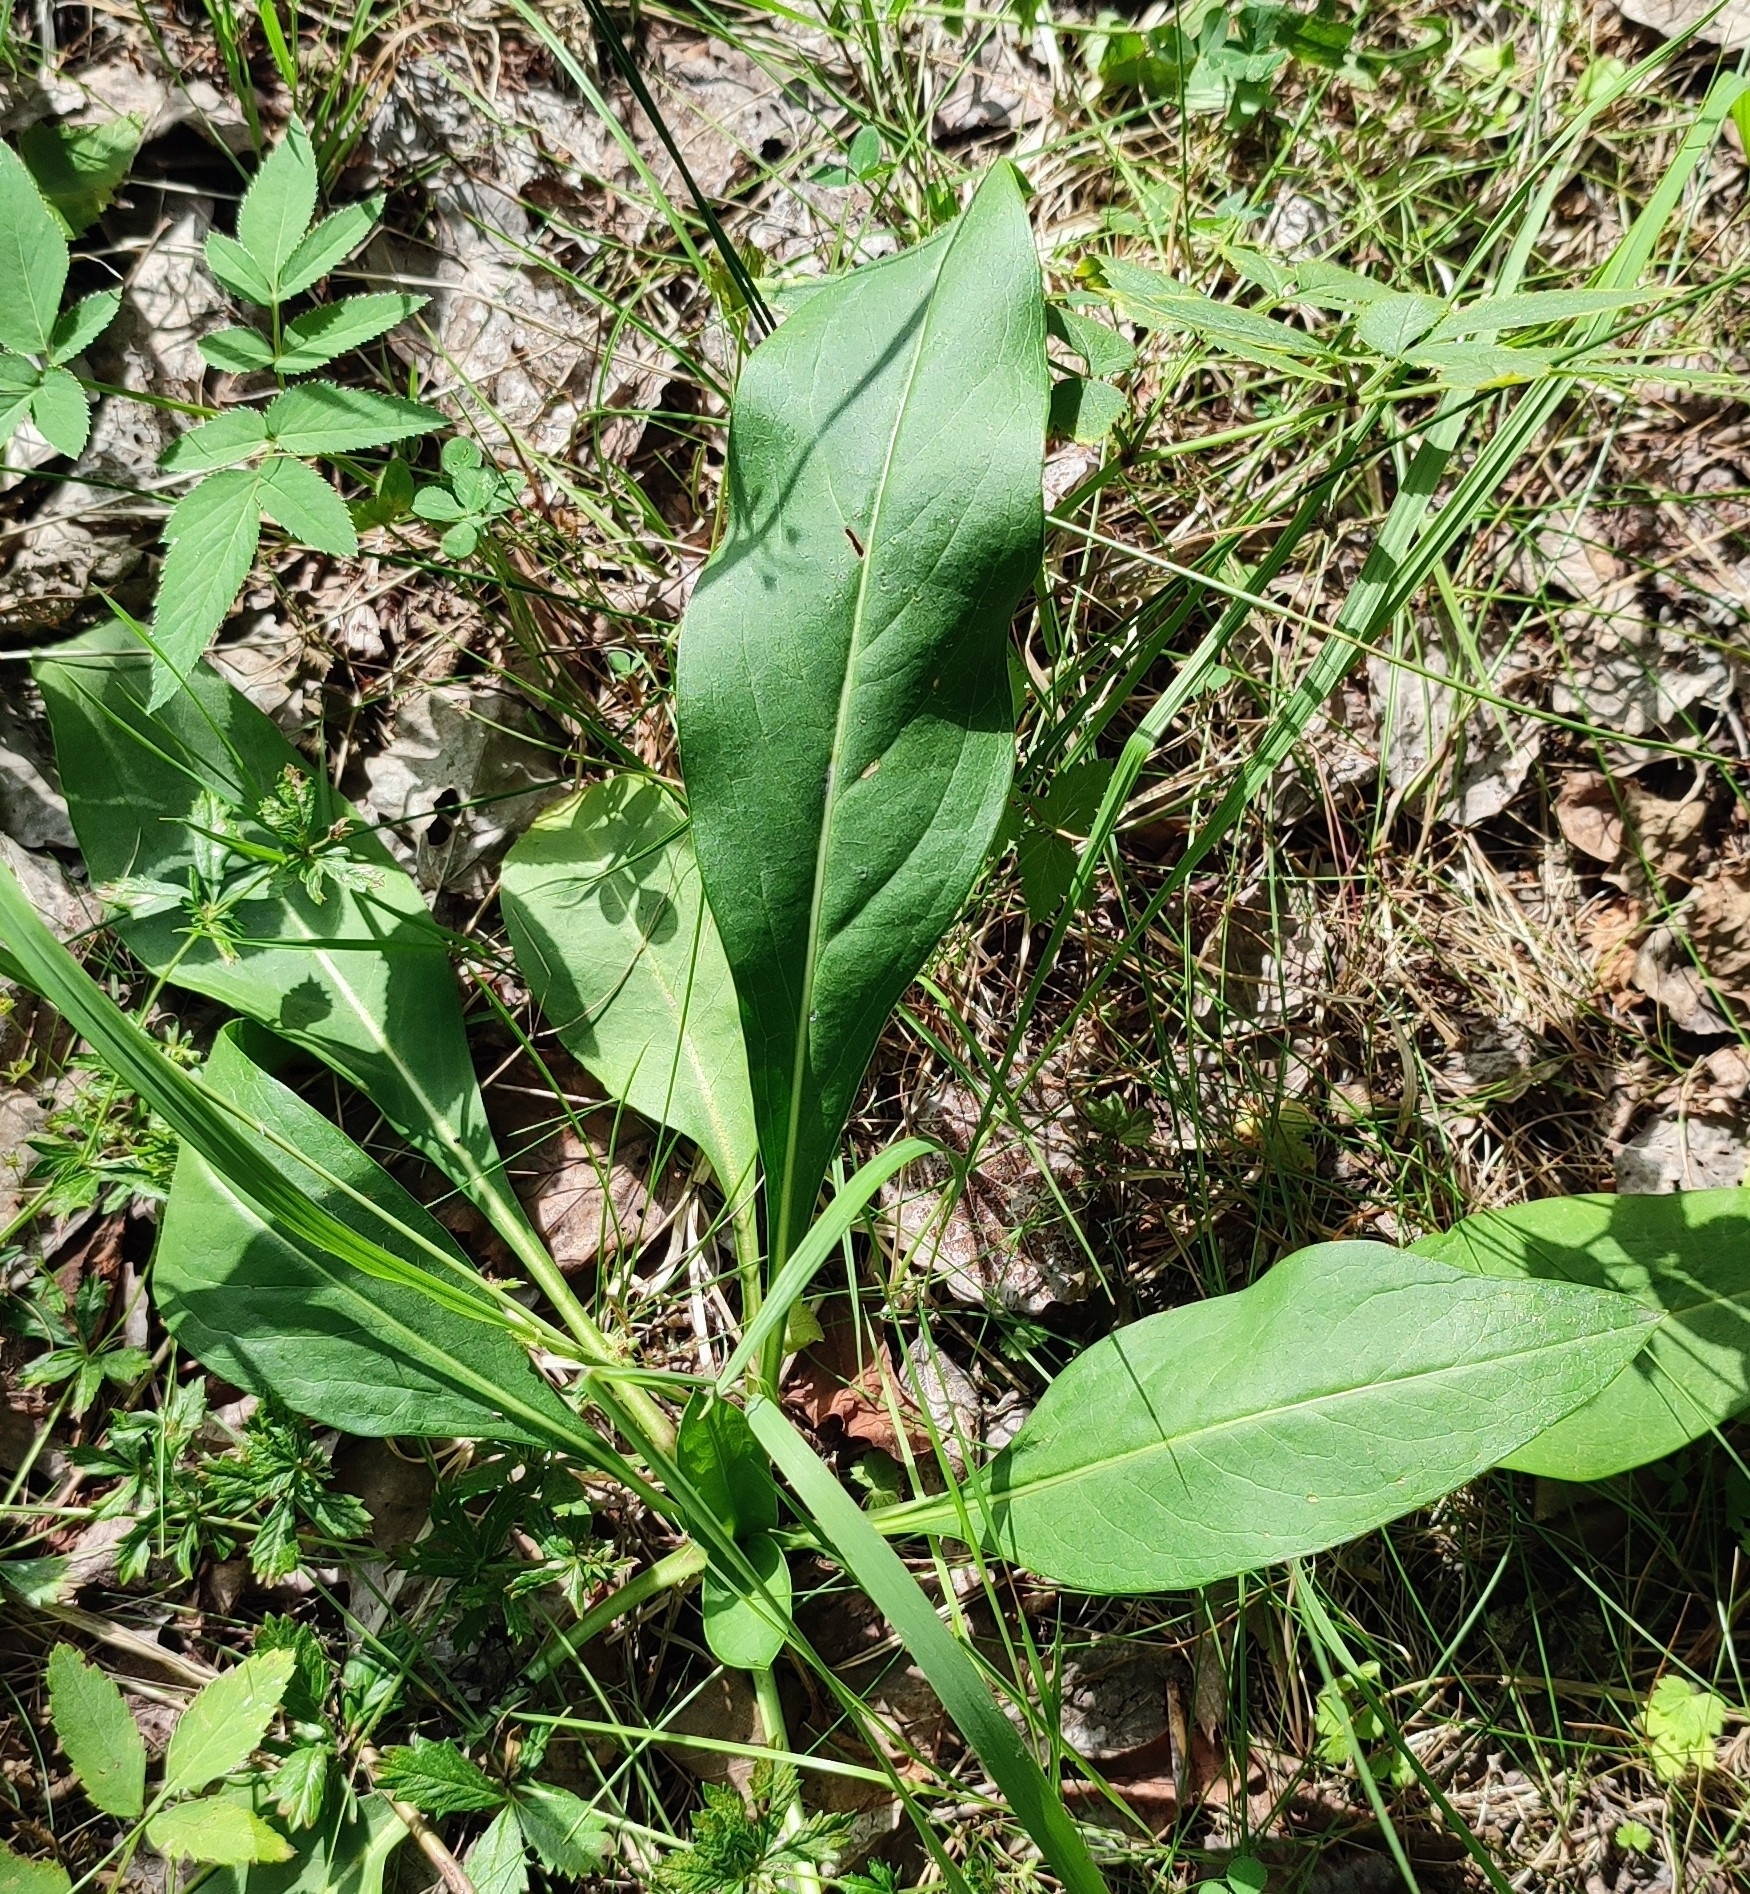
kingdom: Plantae
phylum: Tracheophyta
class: Magnoliopsida
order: Dipsacales
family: Caprifoliaceae
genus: Succisa
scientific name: Succisa pratensis
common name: Devil's-bit
